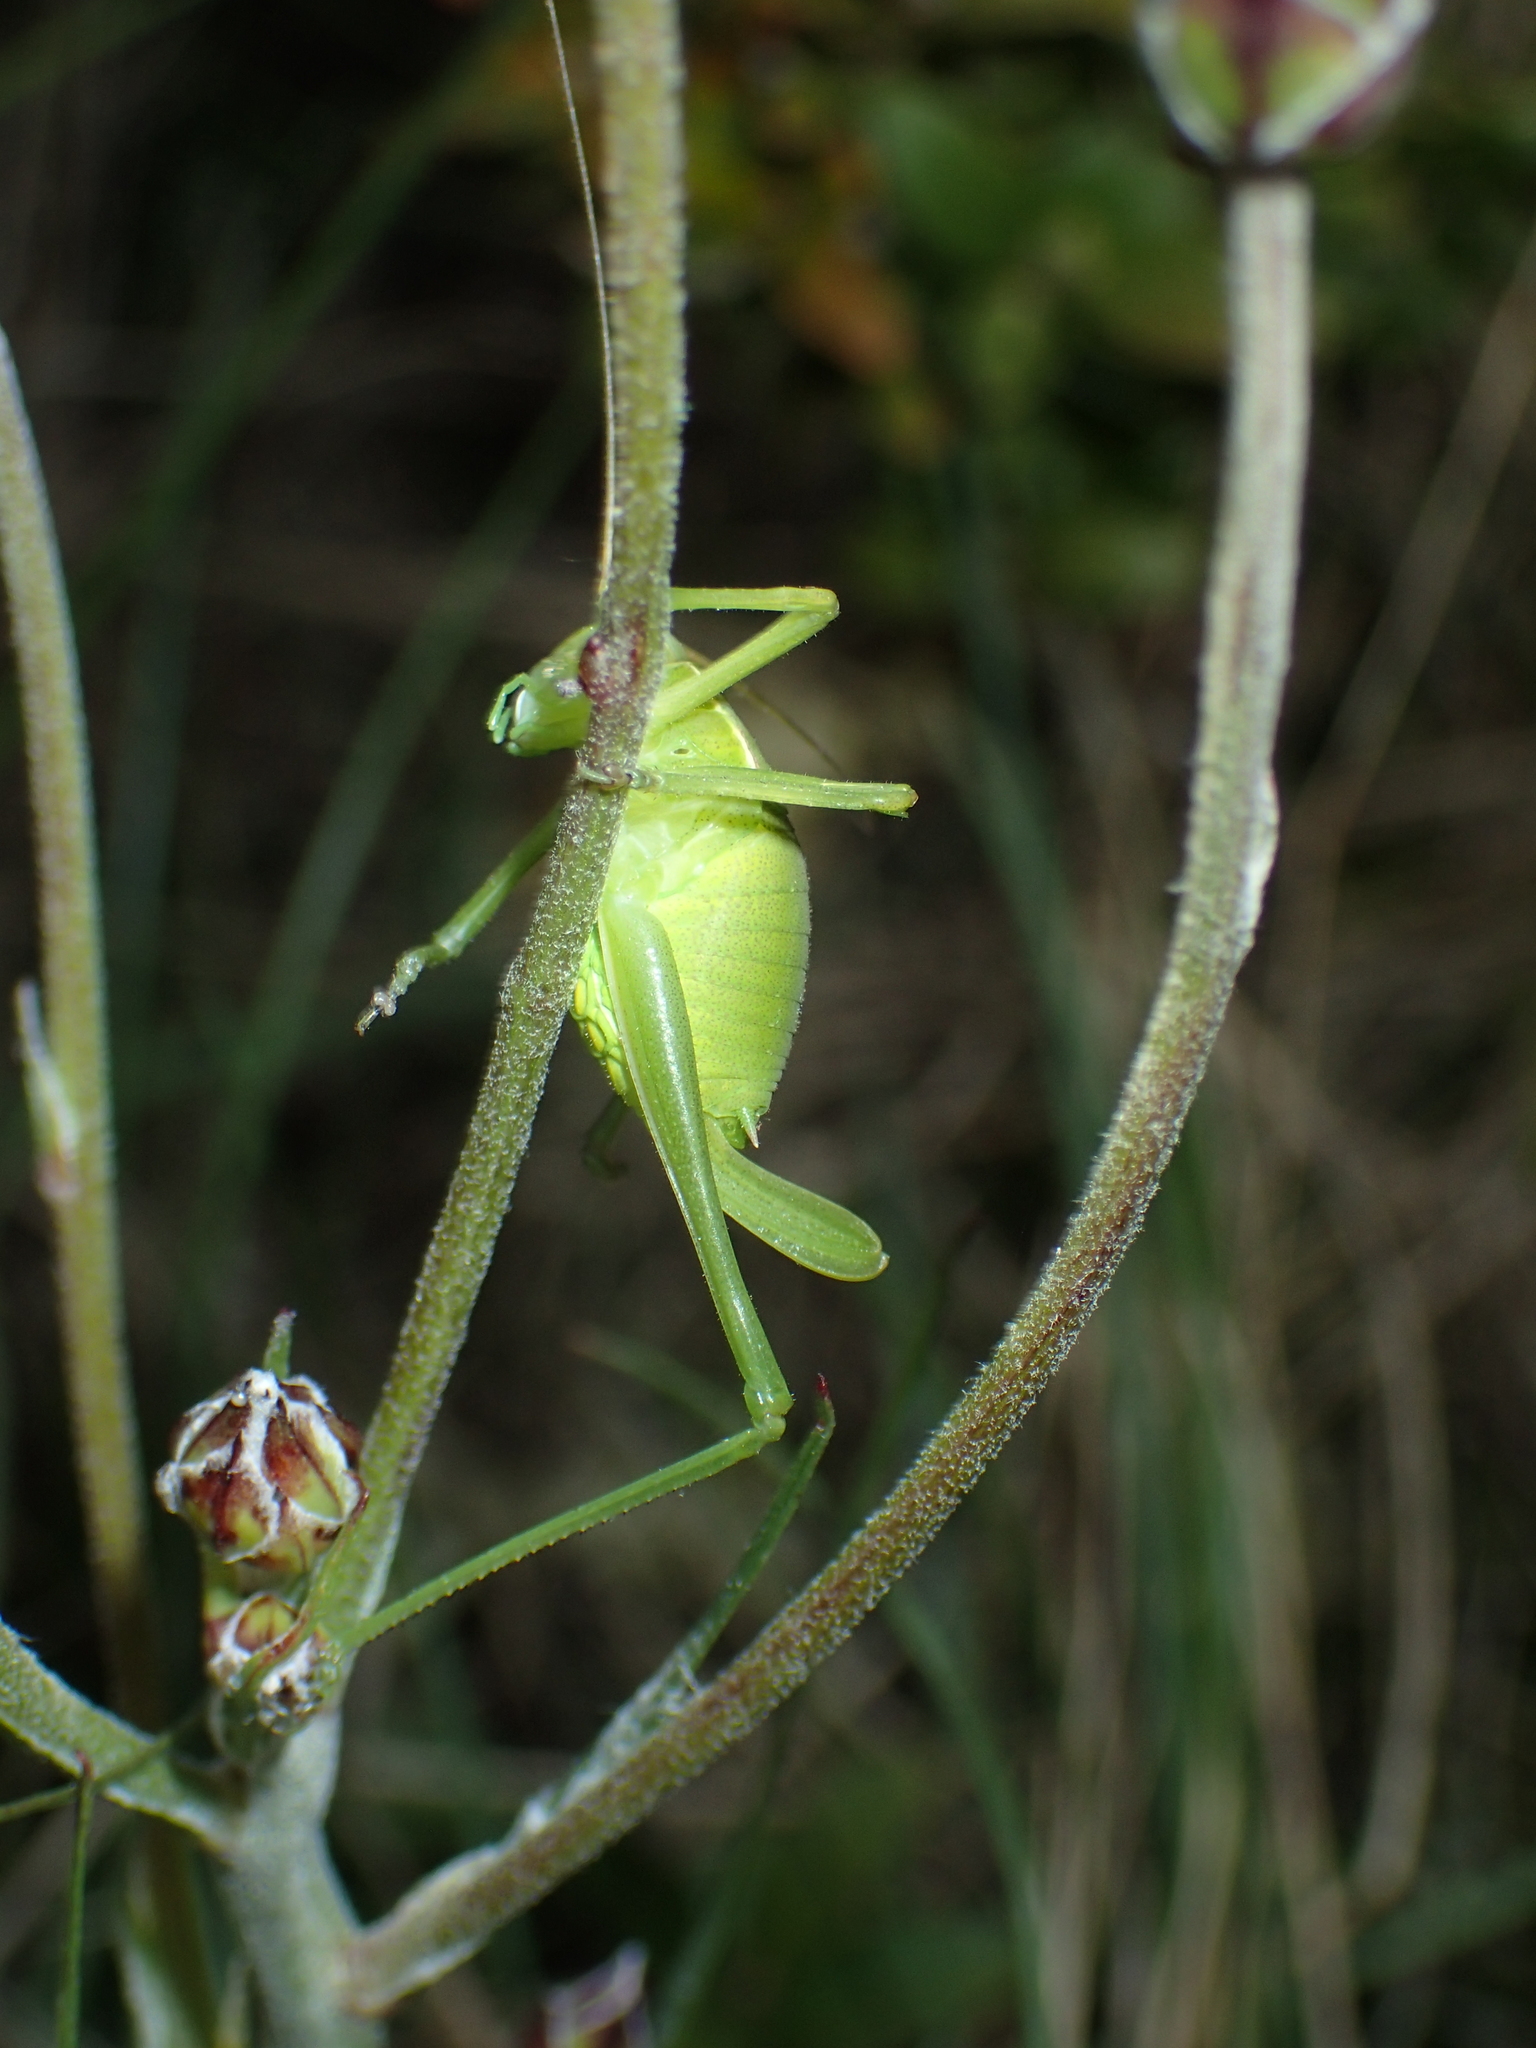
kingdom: Animalia
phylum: Arthropoda
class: Insecta
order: Orthoptera
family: Tettigoniidae
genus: Isophya
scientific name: Isophya pyrenaea
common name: Pyrenean plump bush-cricket
